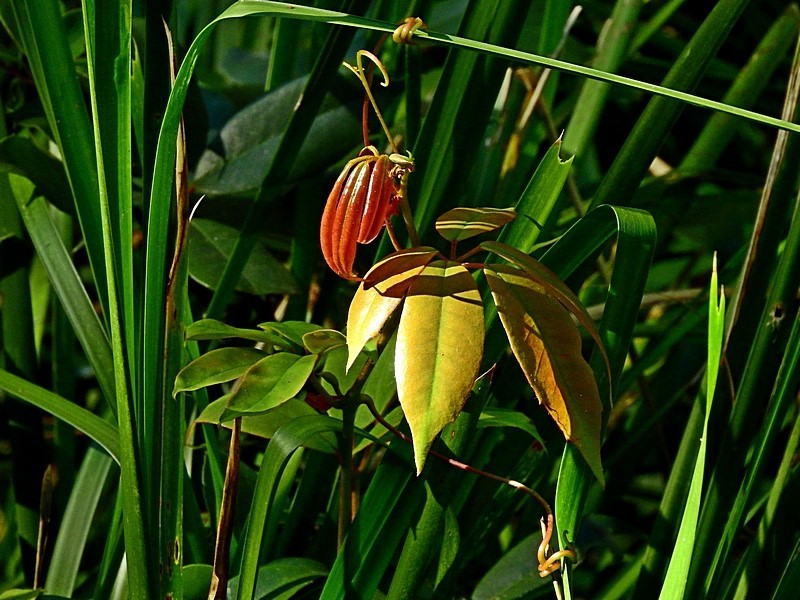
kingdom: Plantae
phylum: Tracheophyta
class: Magnoliopsida
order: Vitales
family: Vitaceae
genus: Nothocissus
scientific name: Nothocissus hypoglauca
